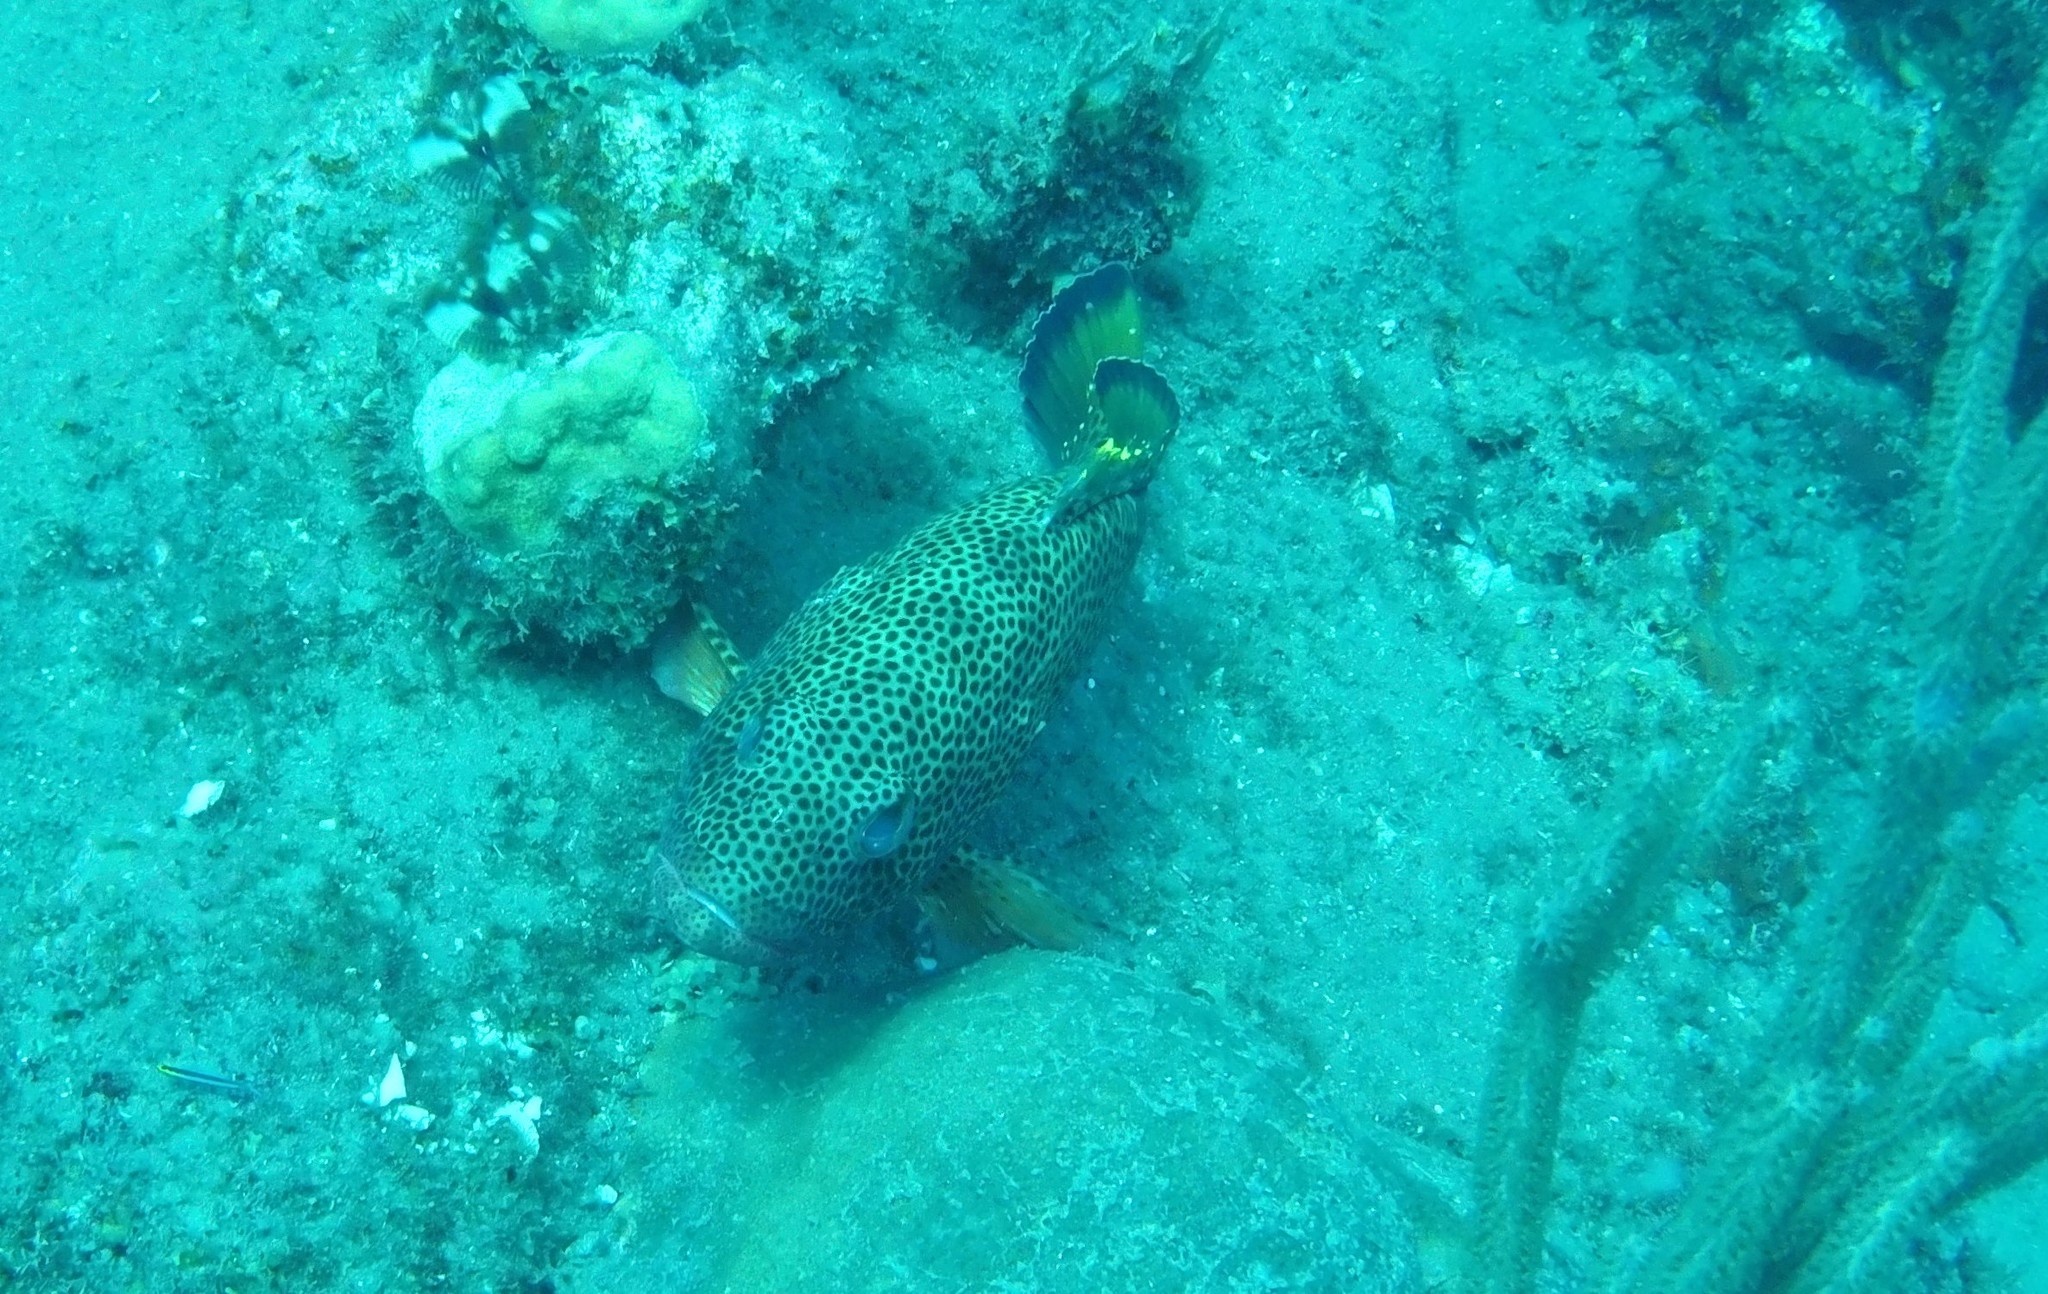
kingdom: Animalia
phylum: Chordata
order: Perciformes
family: Serranidae
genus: Cephalopholis
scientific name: Cephalopholis cruentata
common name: Graysby
